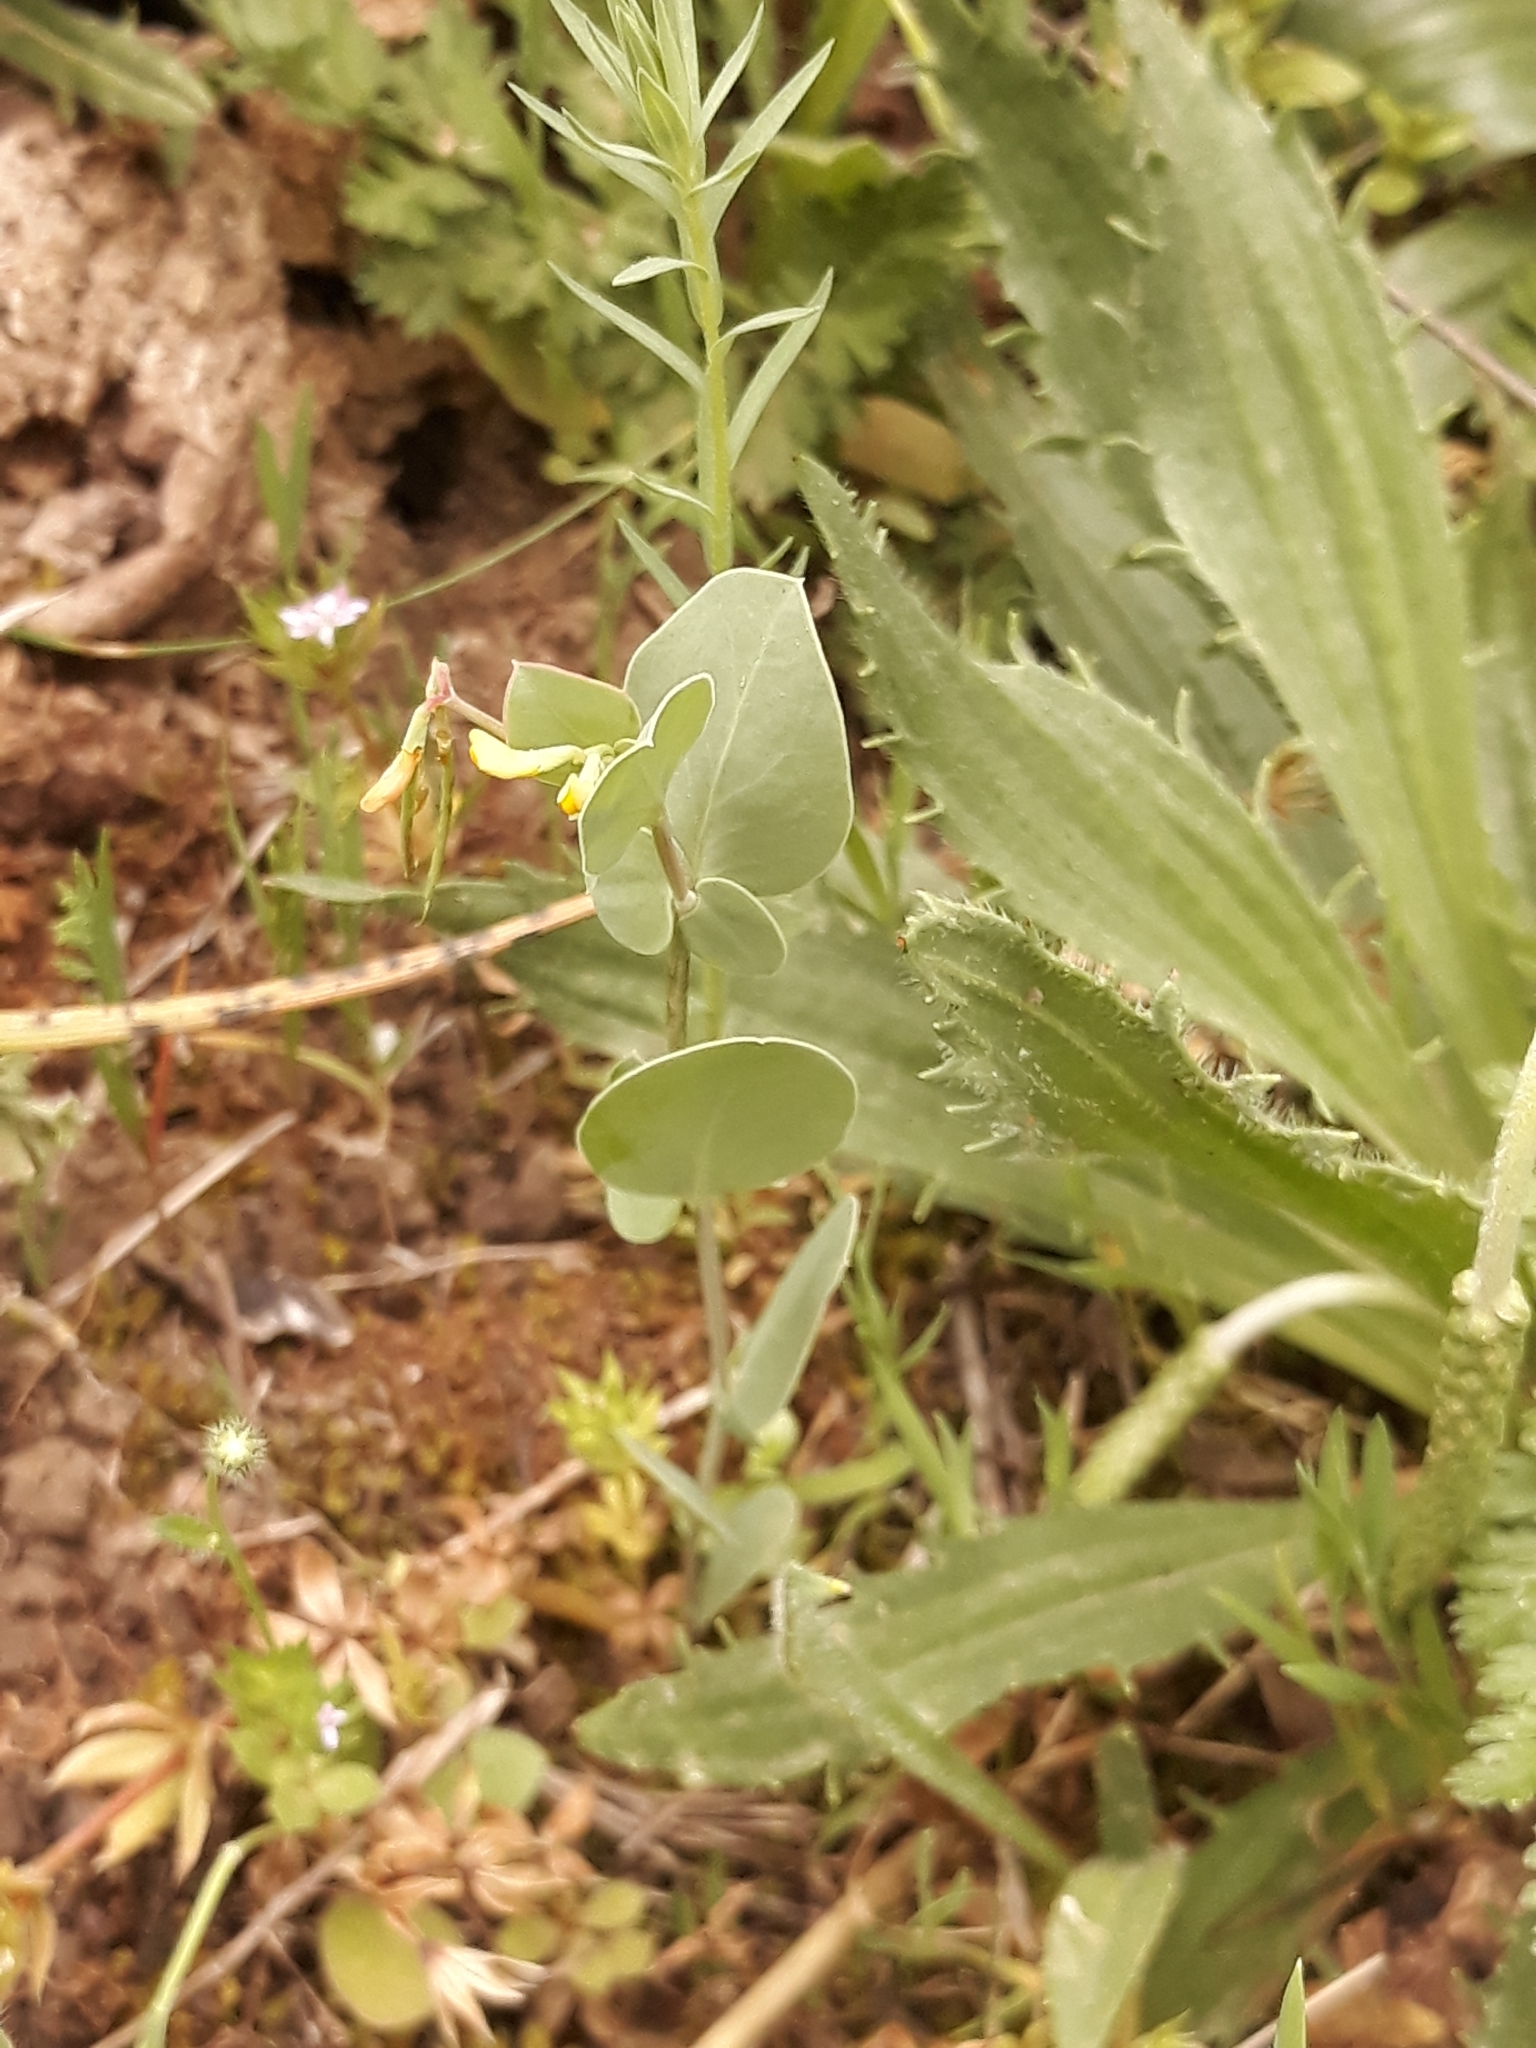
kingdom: Plantae
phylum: Tracheophyta
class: Magnoliopsida
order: Fabales
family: Fabaceae
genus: Coronilla
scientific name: Coronilla scorpioides
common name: Annual scorpion-vetch
